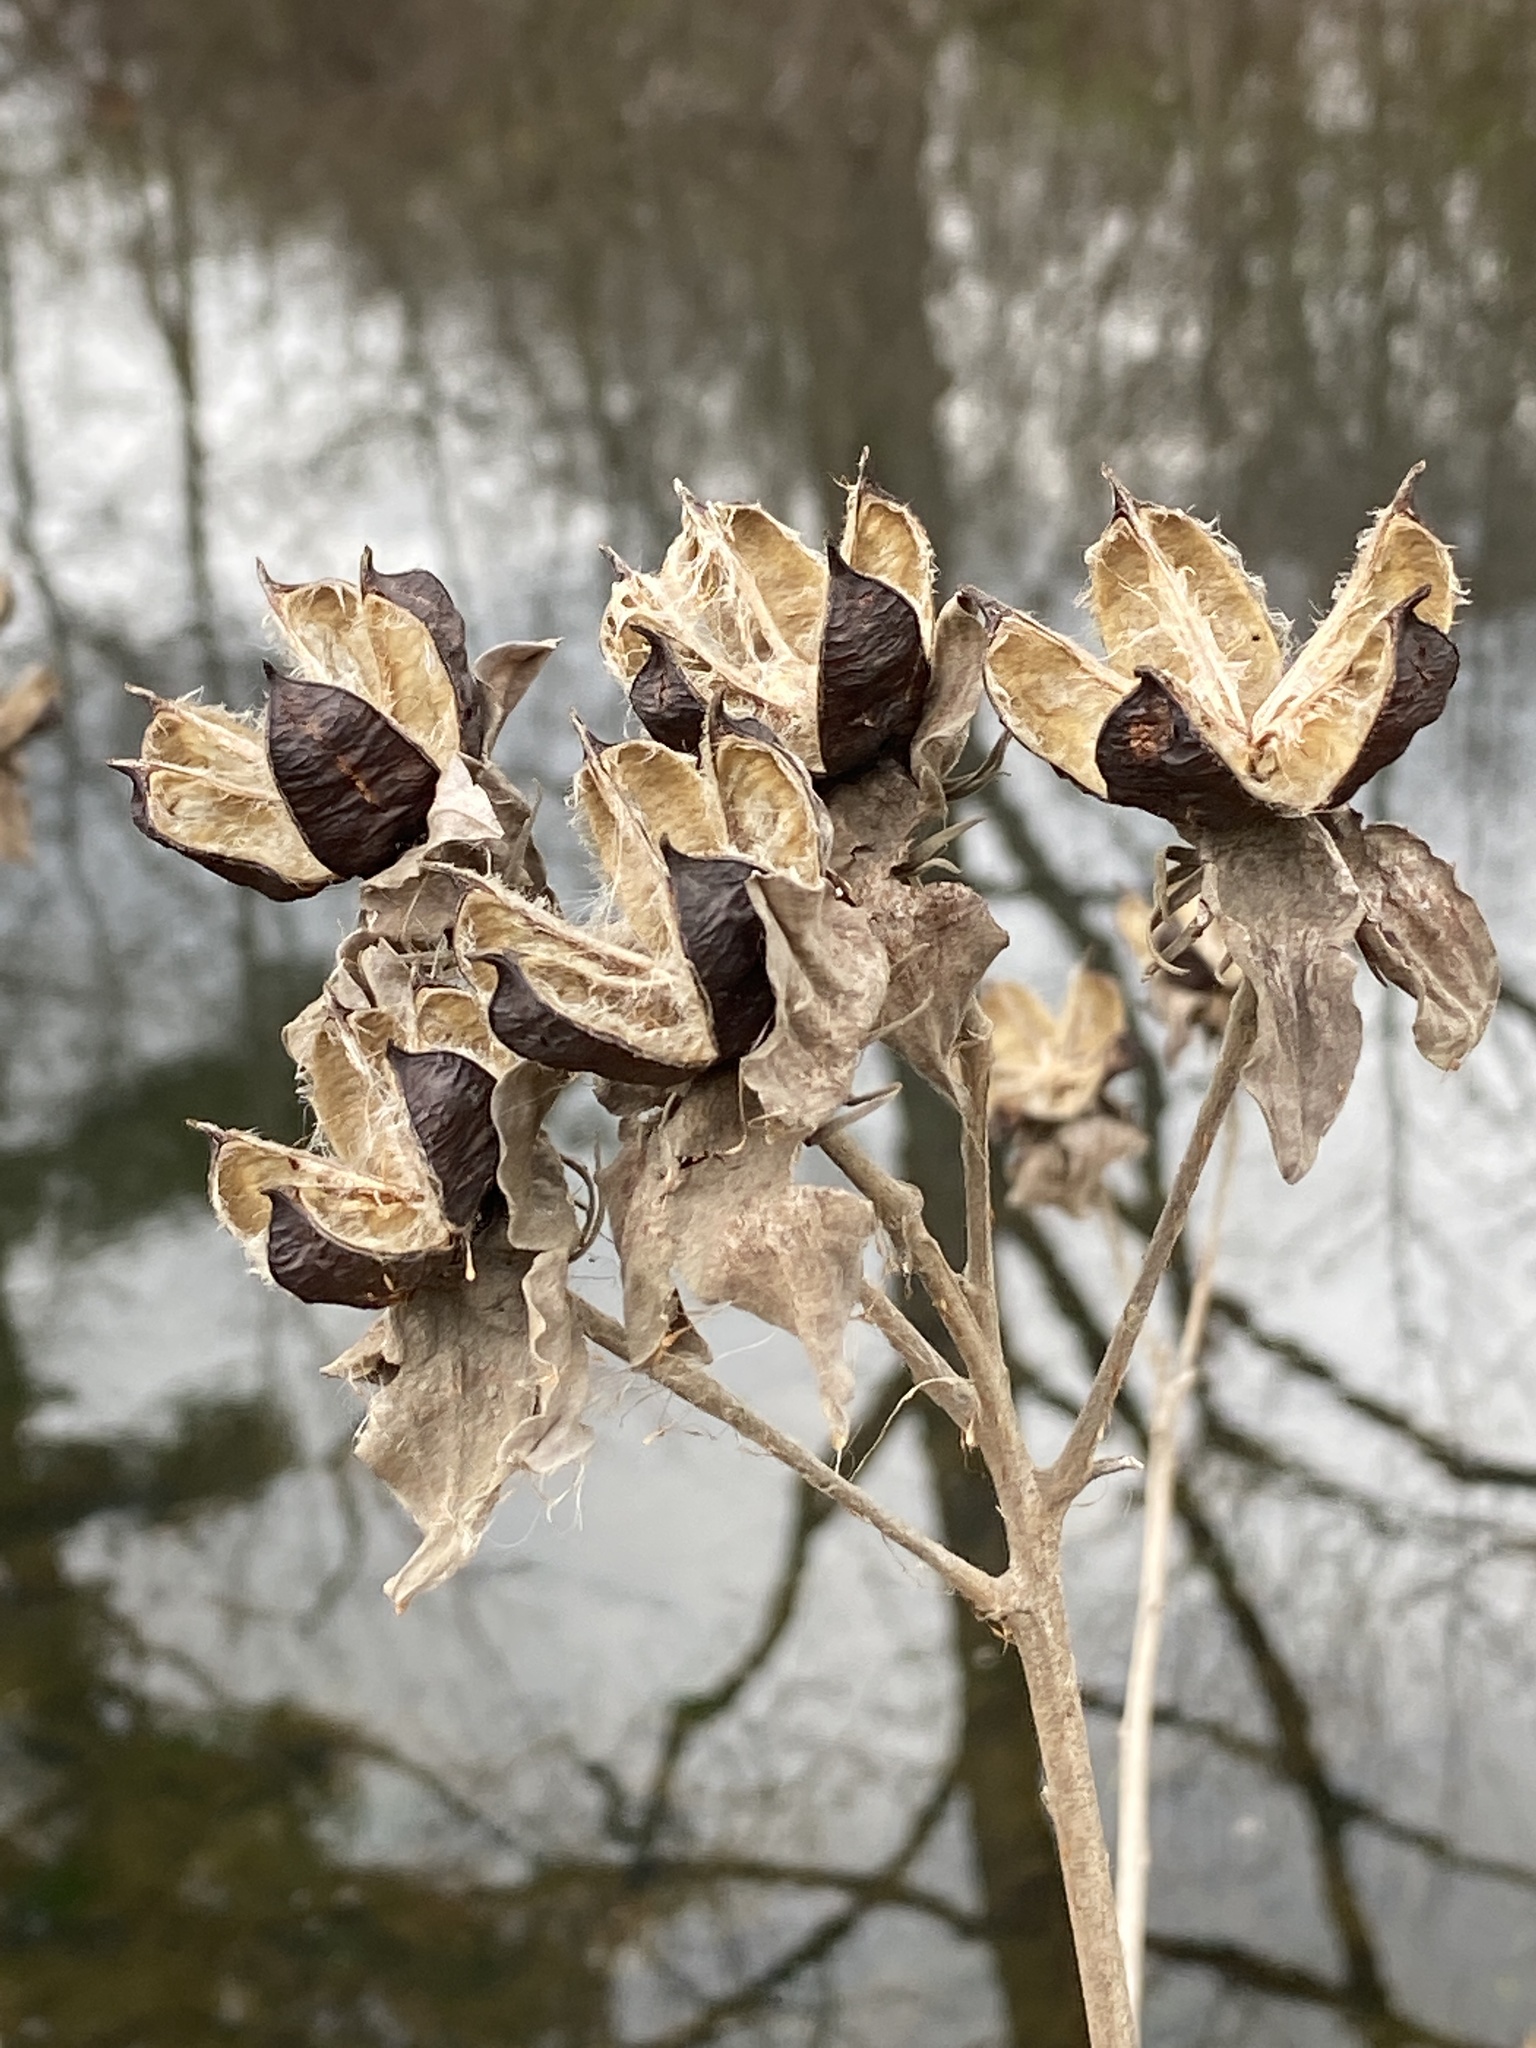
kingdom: Plantae
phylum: Tracheophyta
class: Magnoliopsida
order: Malvales
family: Malvaceae
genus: Hibiscus
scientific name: Hibiscus moscheutos
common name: Common rose-mallow
